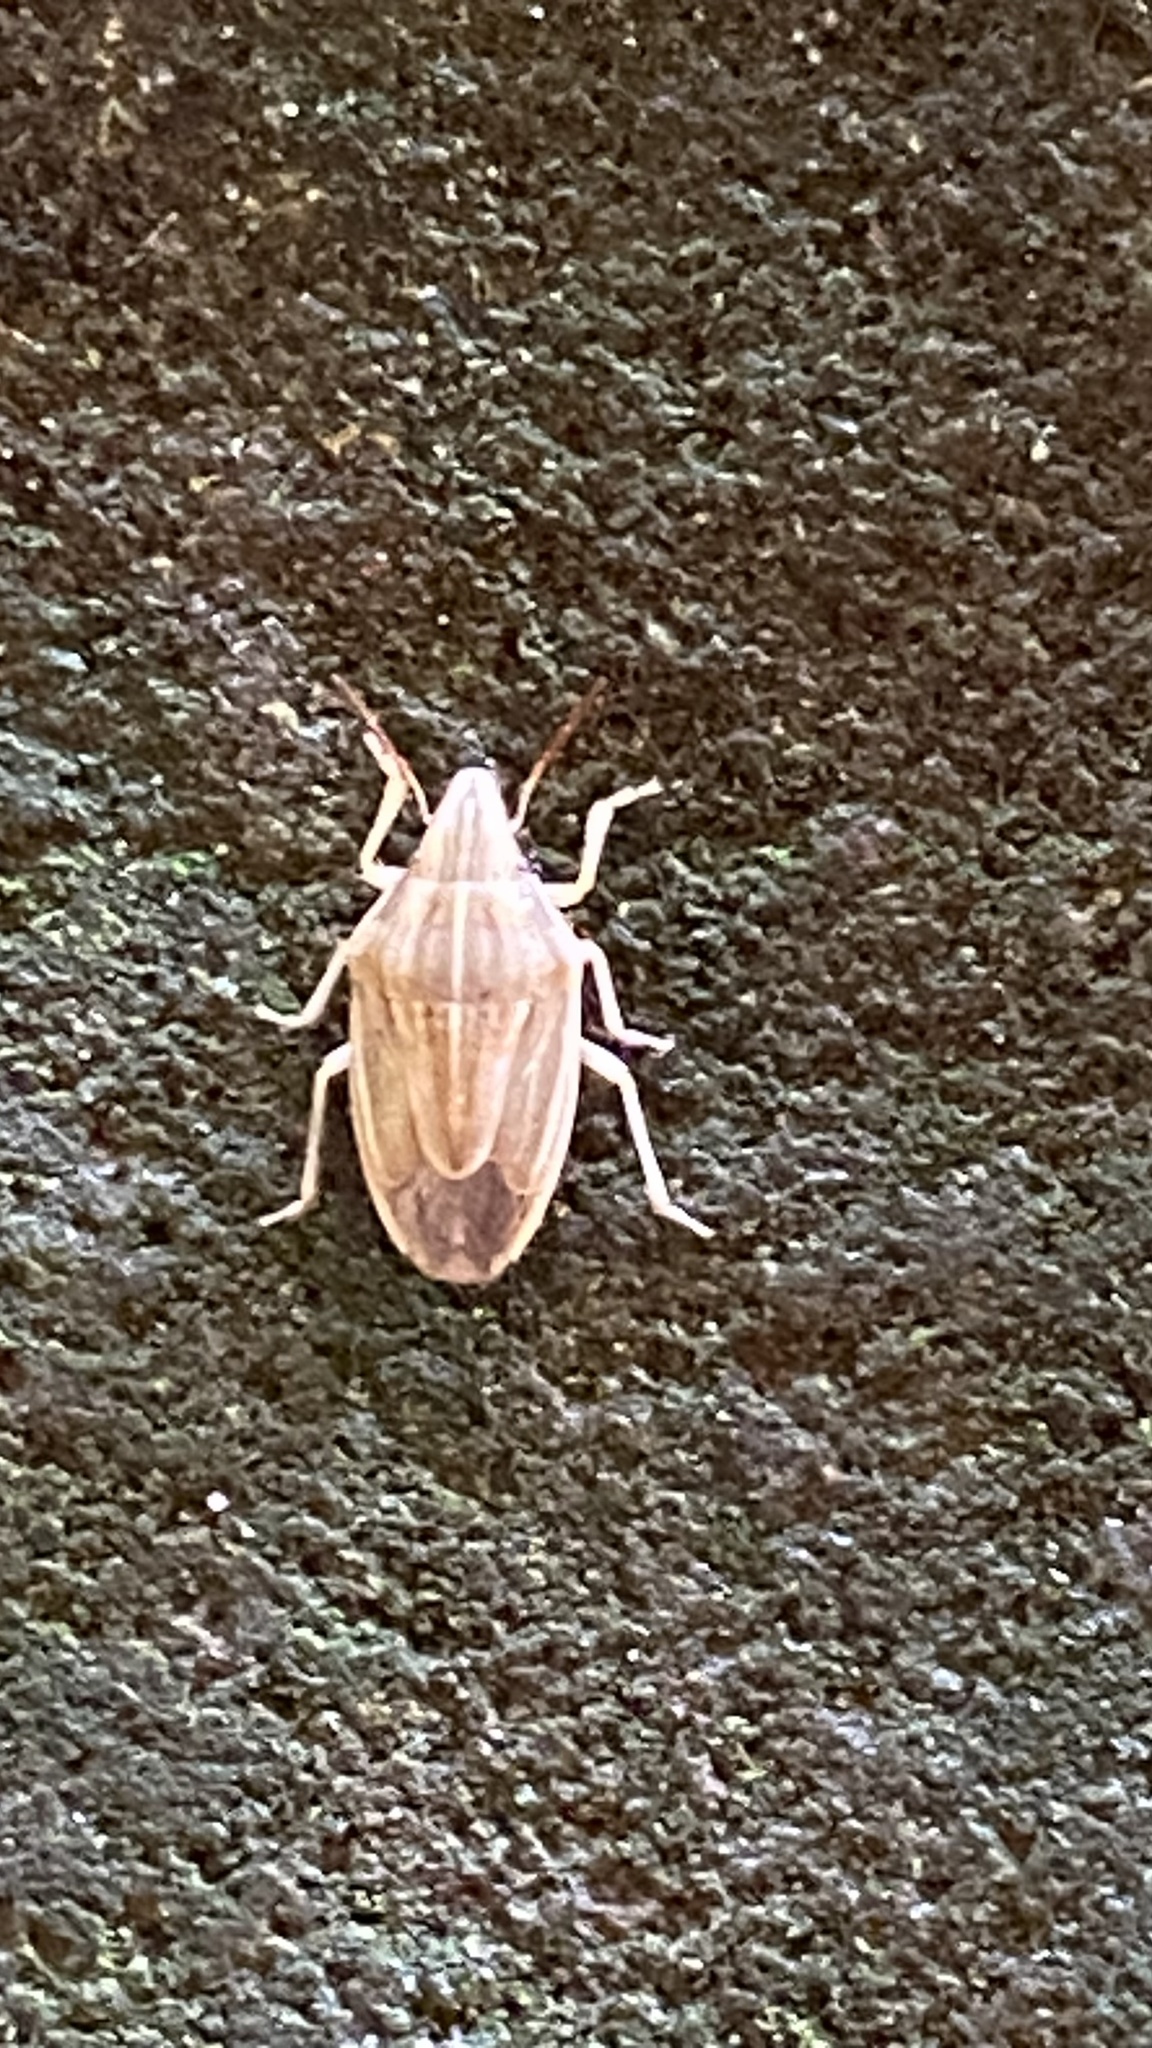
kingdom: Animalia
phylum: Arthropoda
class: Insecta
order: Hemiptera
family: Pentatomidae
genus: Aelia
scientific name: Aelia acuminata
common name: Bishop's mitre
